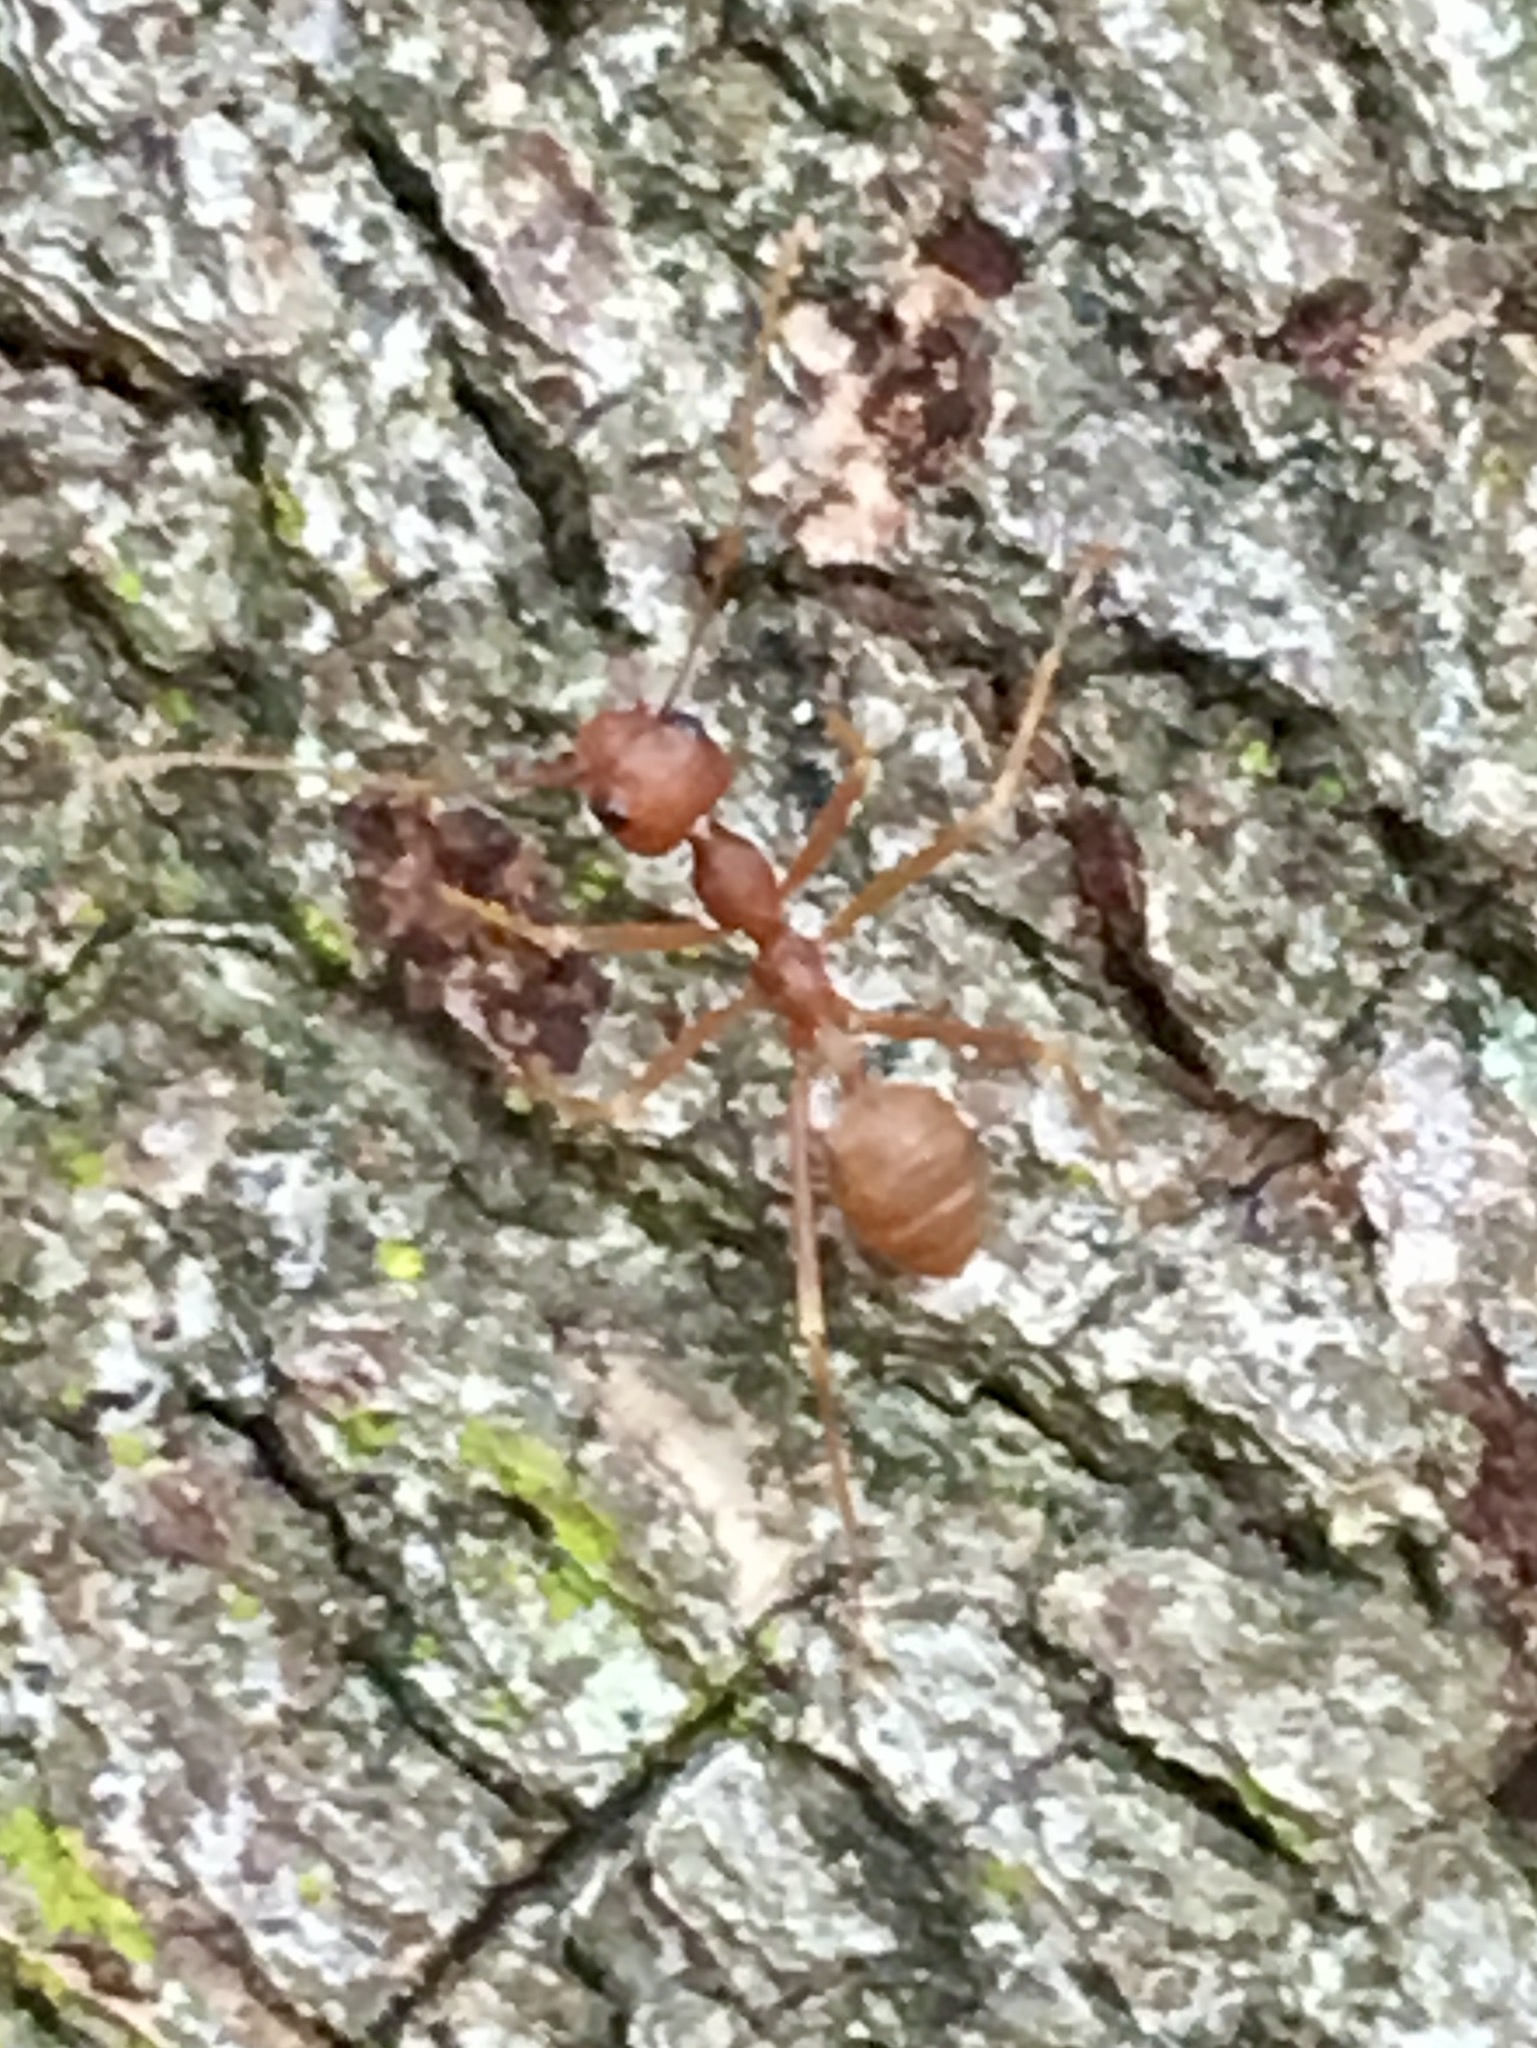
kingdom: Animalia
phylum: Arthropoda
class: Insecta
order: Hymenoptera
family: Formicidae
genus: Oecophylla
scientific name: Oecophylla longinoda
